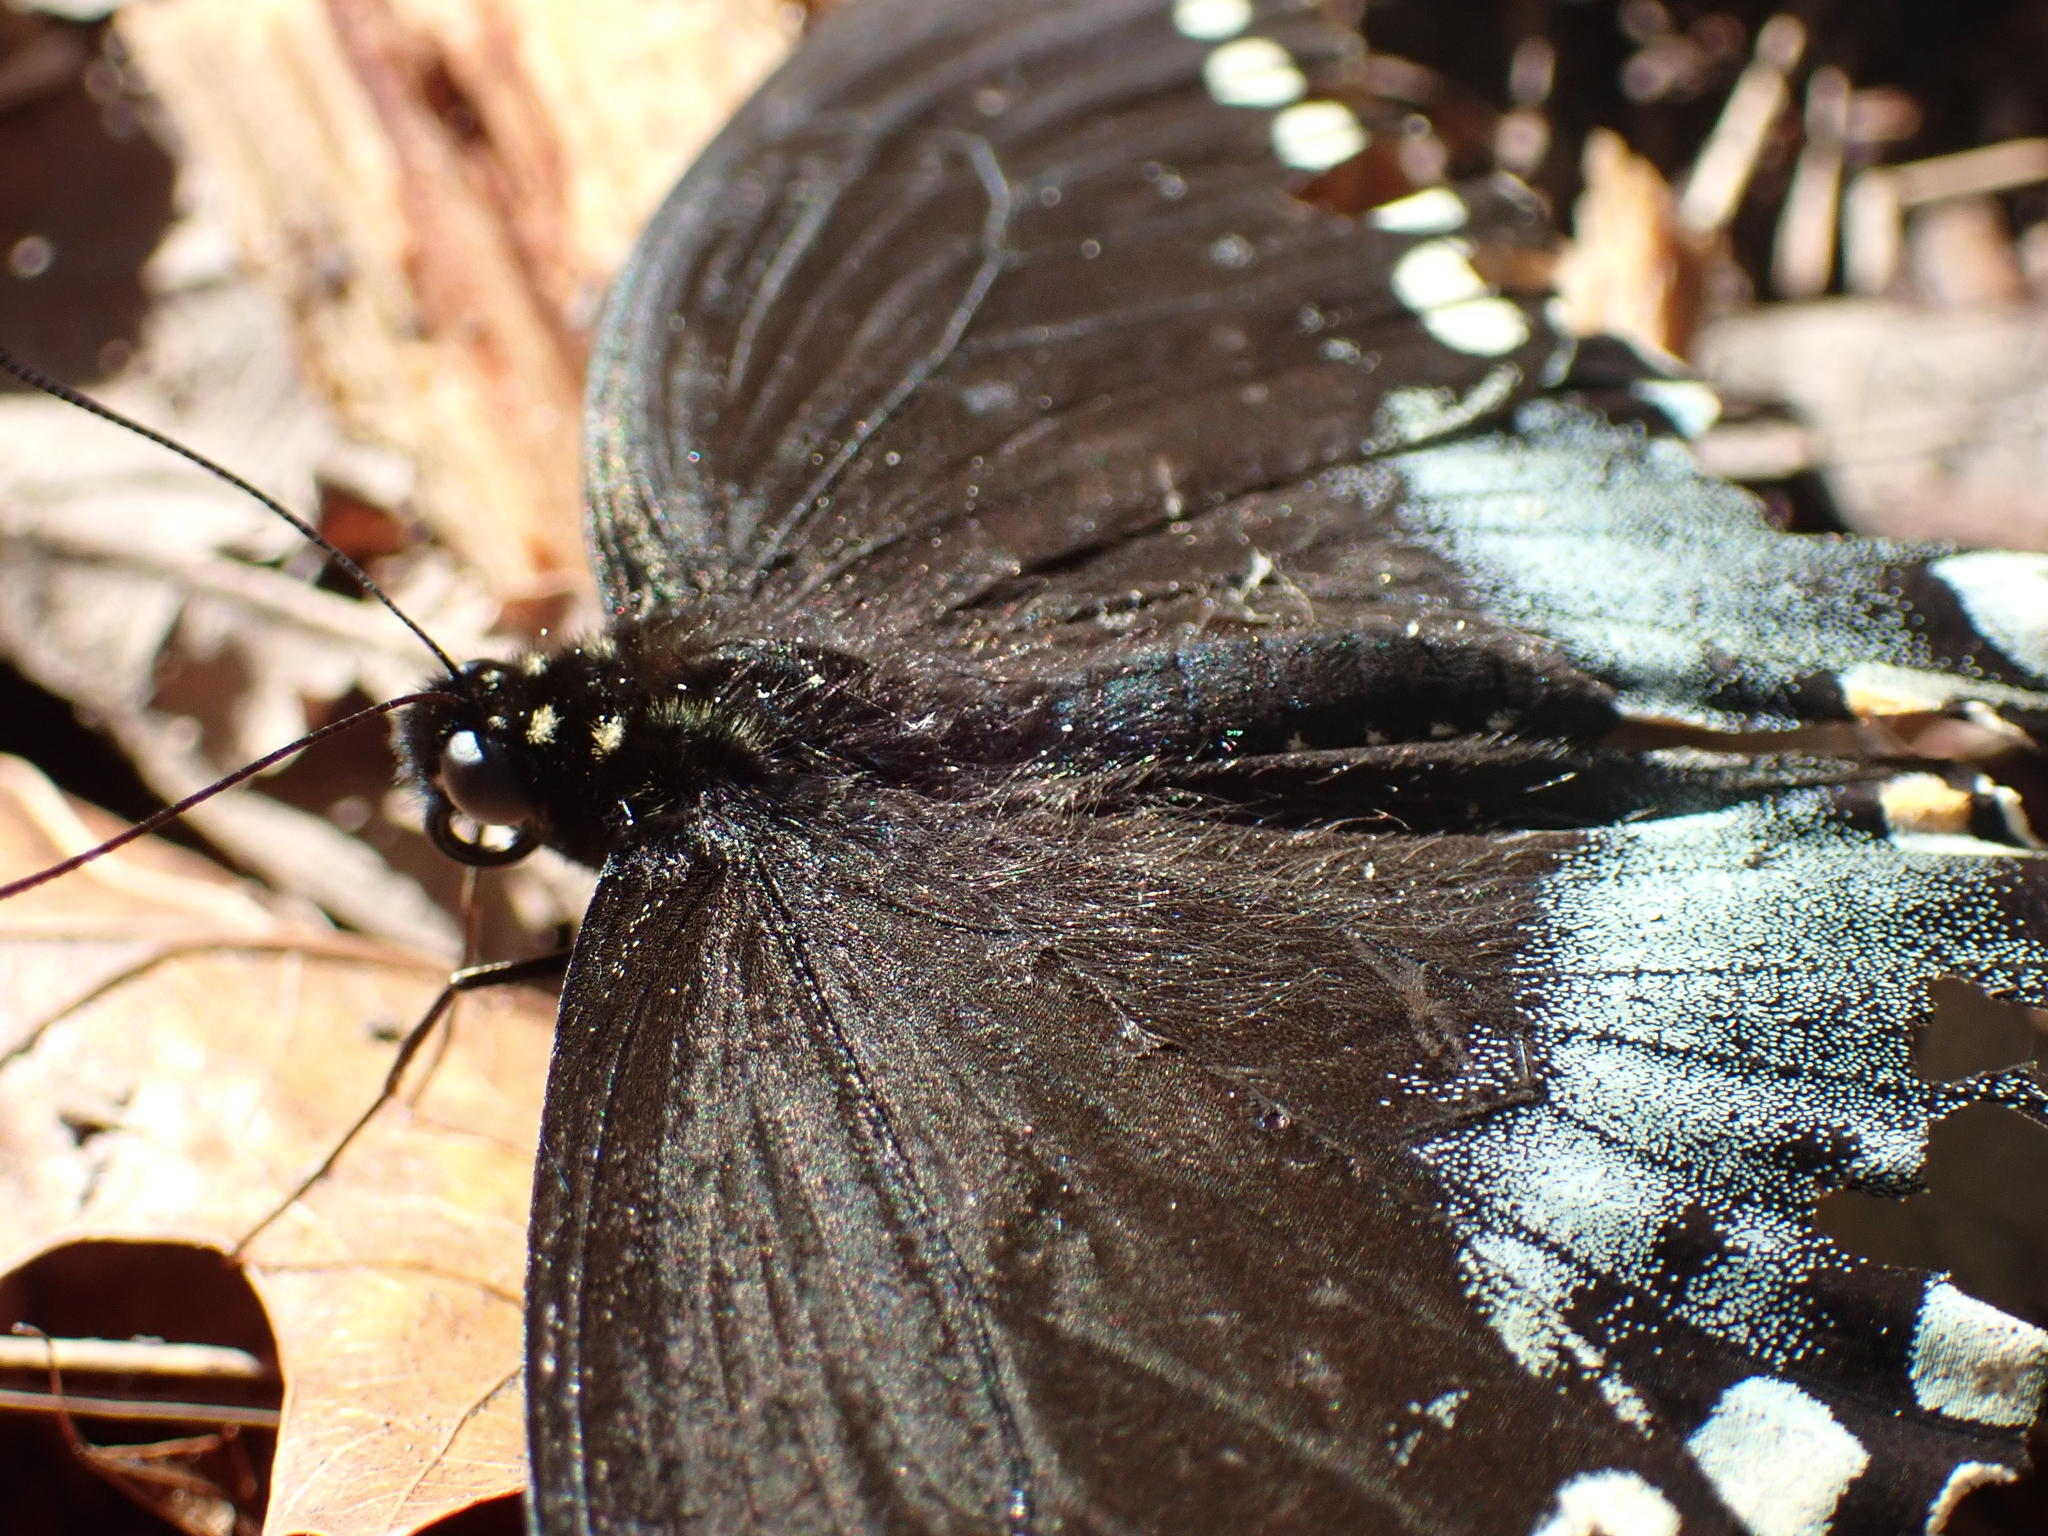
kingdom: Animalia
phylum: Arthropoda
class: Insecta
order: Lepidoptera
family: Papilionidae
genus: Papilio
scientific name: Papilio troilus
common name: Spicebush swallowtail
